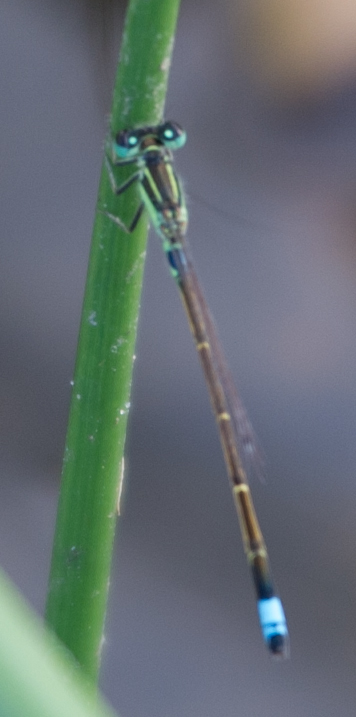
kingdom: Animalia
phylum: Arthropoda
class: Insecta
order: Odonata
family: Coenagrionidae
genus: Ischnura
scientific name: Ischnura senegalensis
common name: Tropical bluetail
